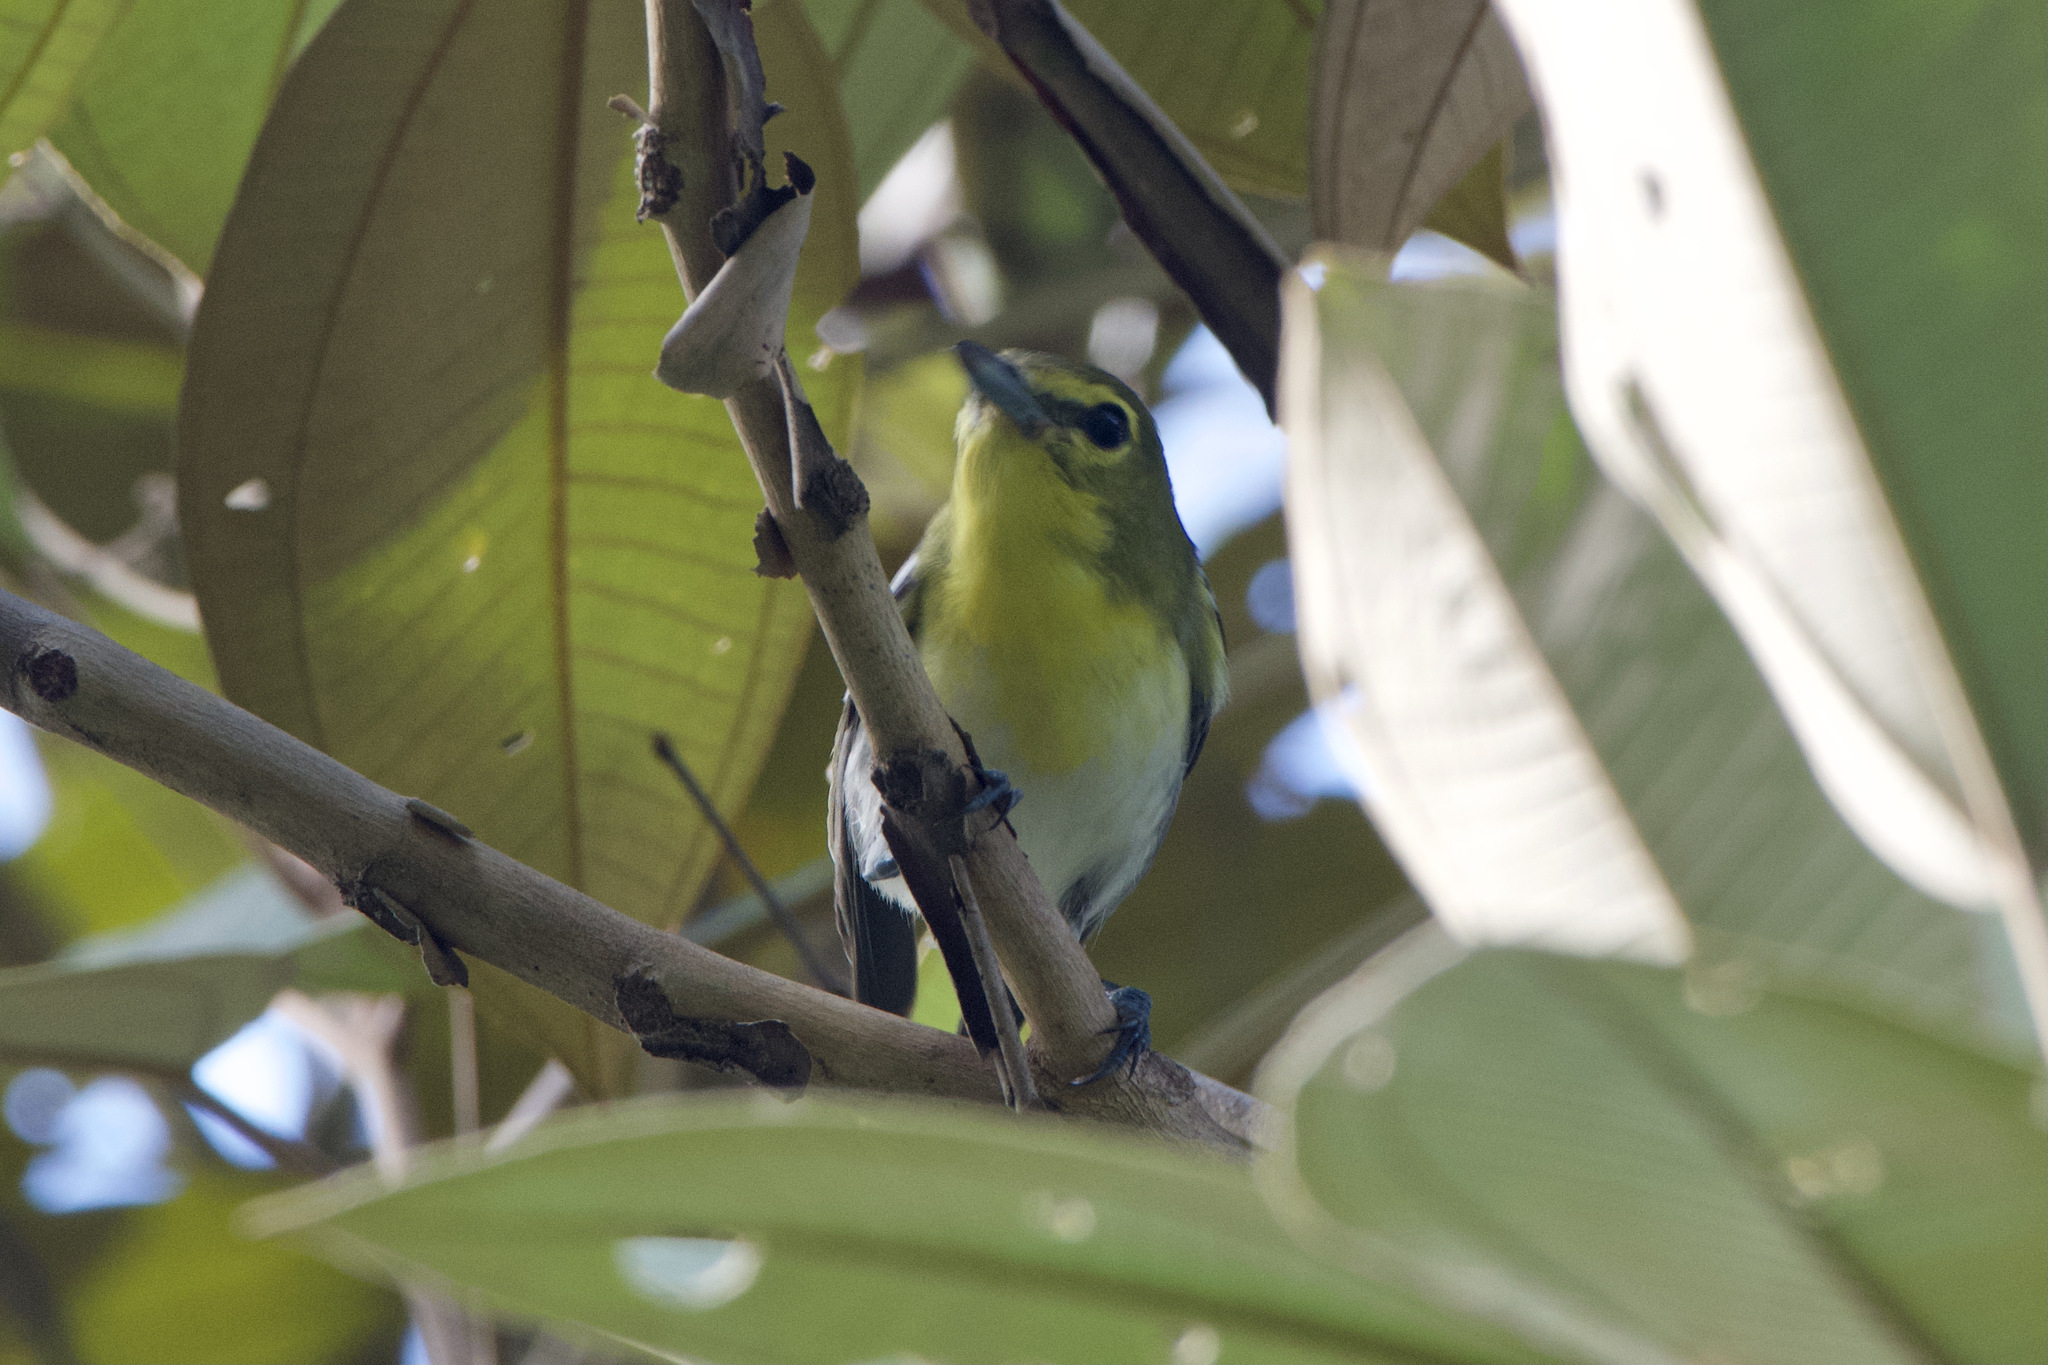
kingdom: Animalia
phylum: Chordata
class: Aves
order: Passeriformes
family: Vireonidae
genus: Vireo
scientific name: Vireo flavifrons
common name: Yellow-throated vireo
